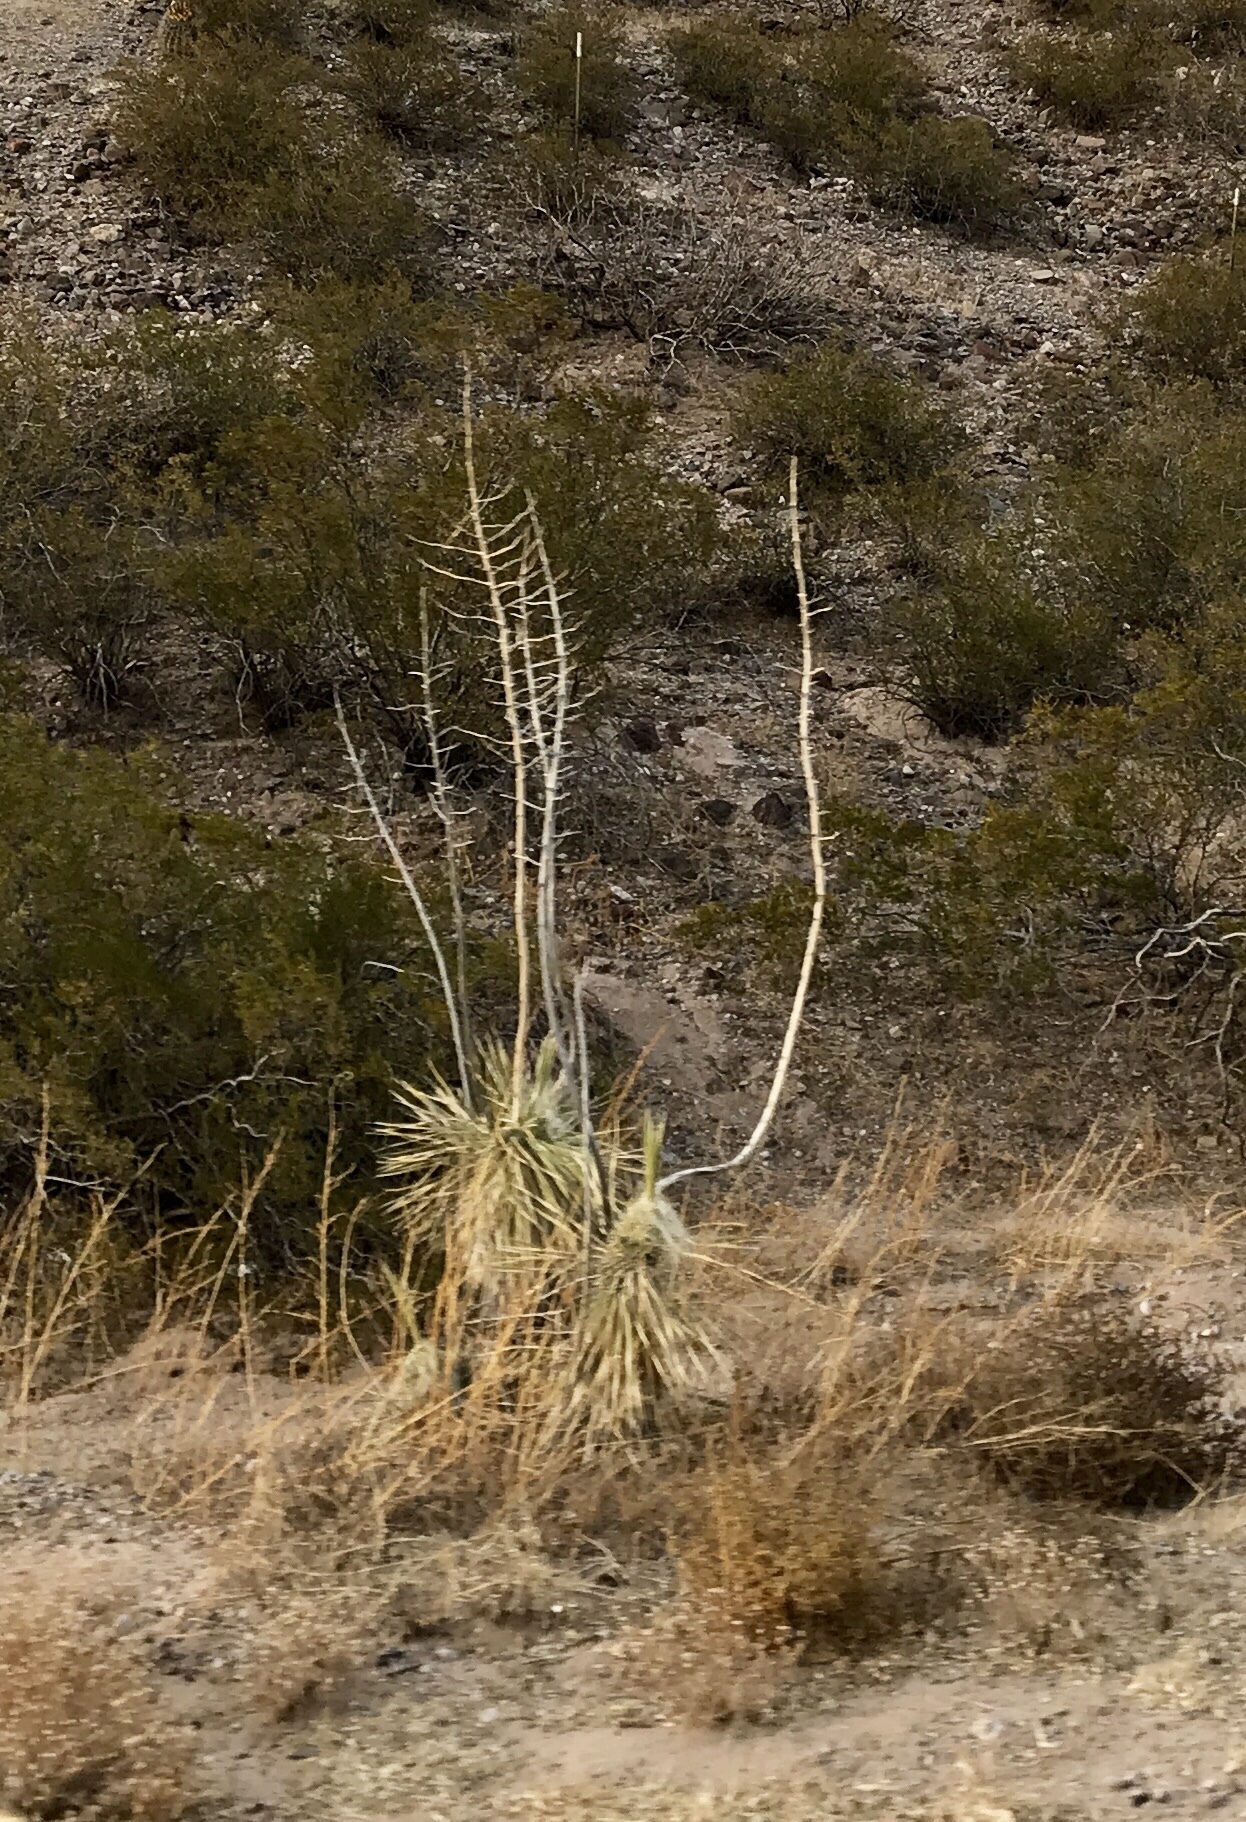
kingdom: Plantae
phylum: Tracheophyta
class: Liliopsida
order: Asparagales
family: Asparagaceae
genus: Yucca
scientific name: Yucca elata
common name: Palmella
